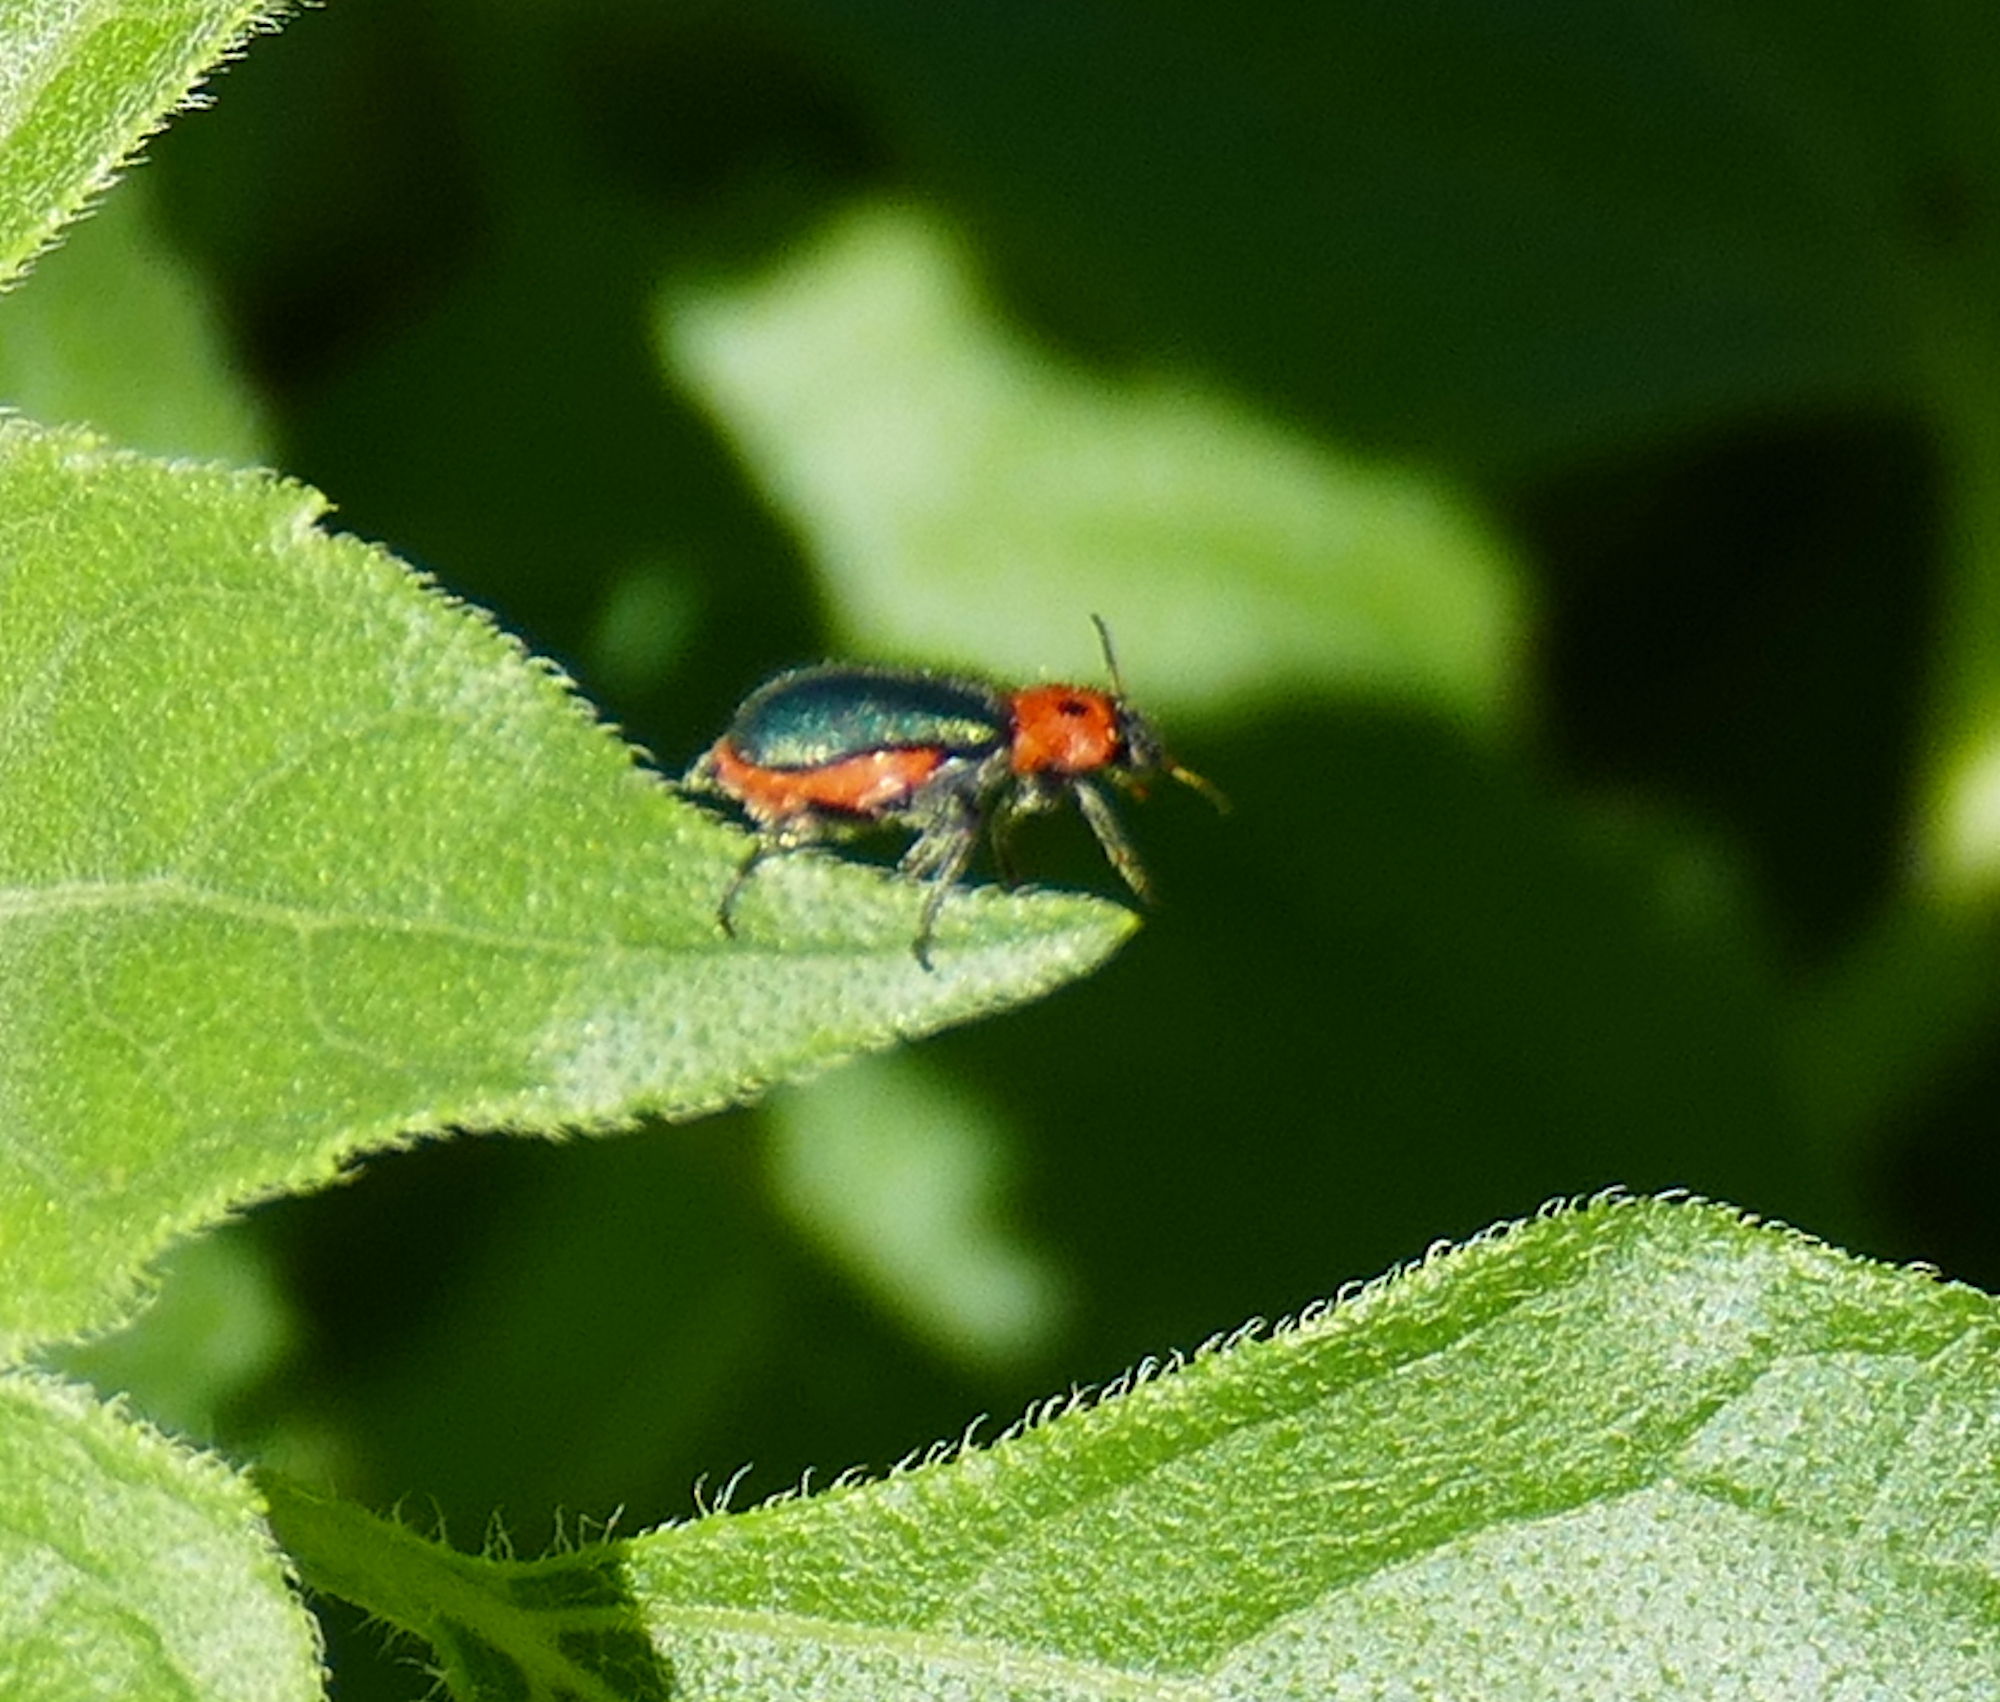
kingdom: Animalia
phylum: Arthropoda
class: Insecta
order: Coleoptera
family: Melyridae
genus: Collops
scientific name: Collops bipunctatus
